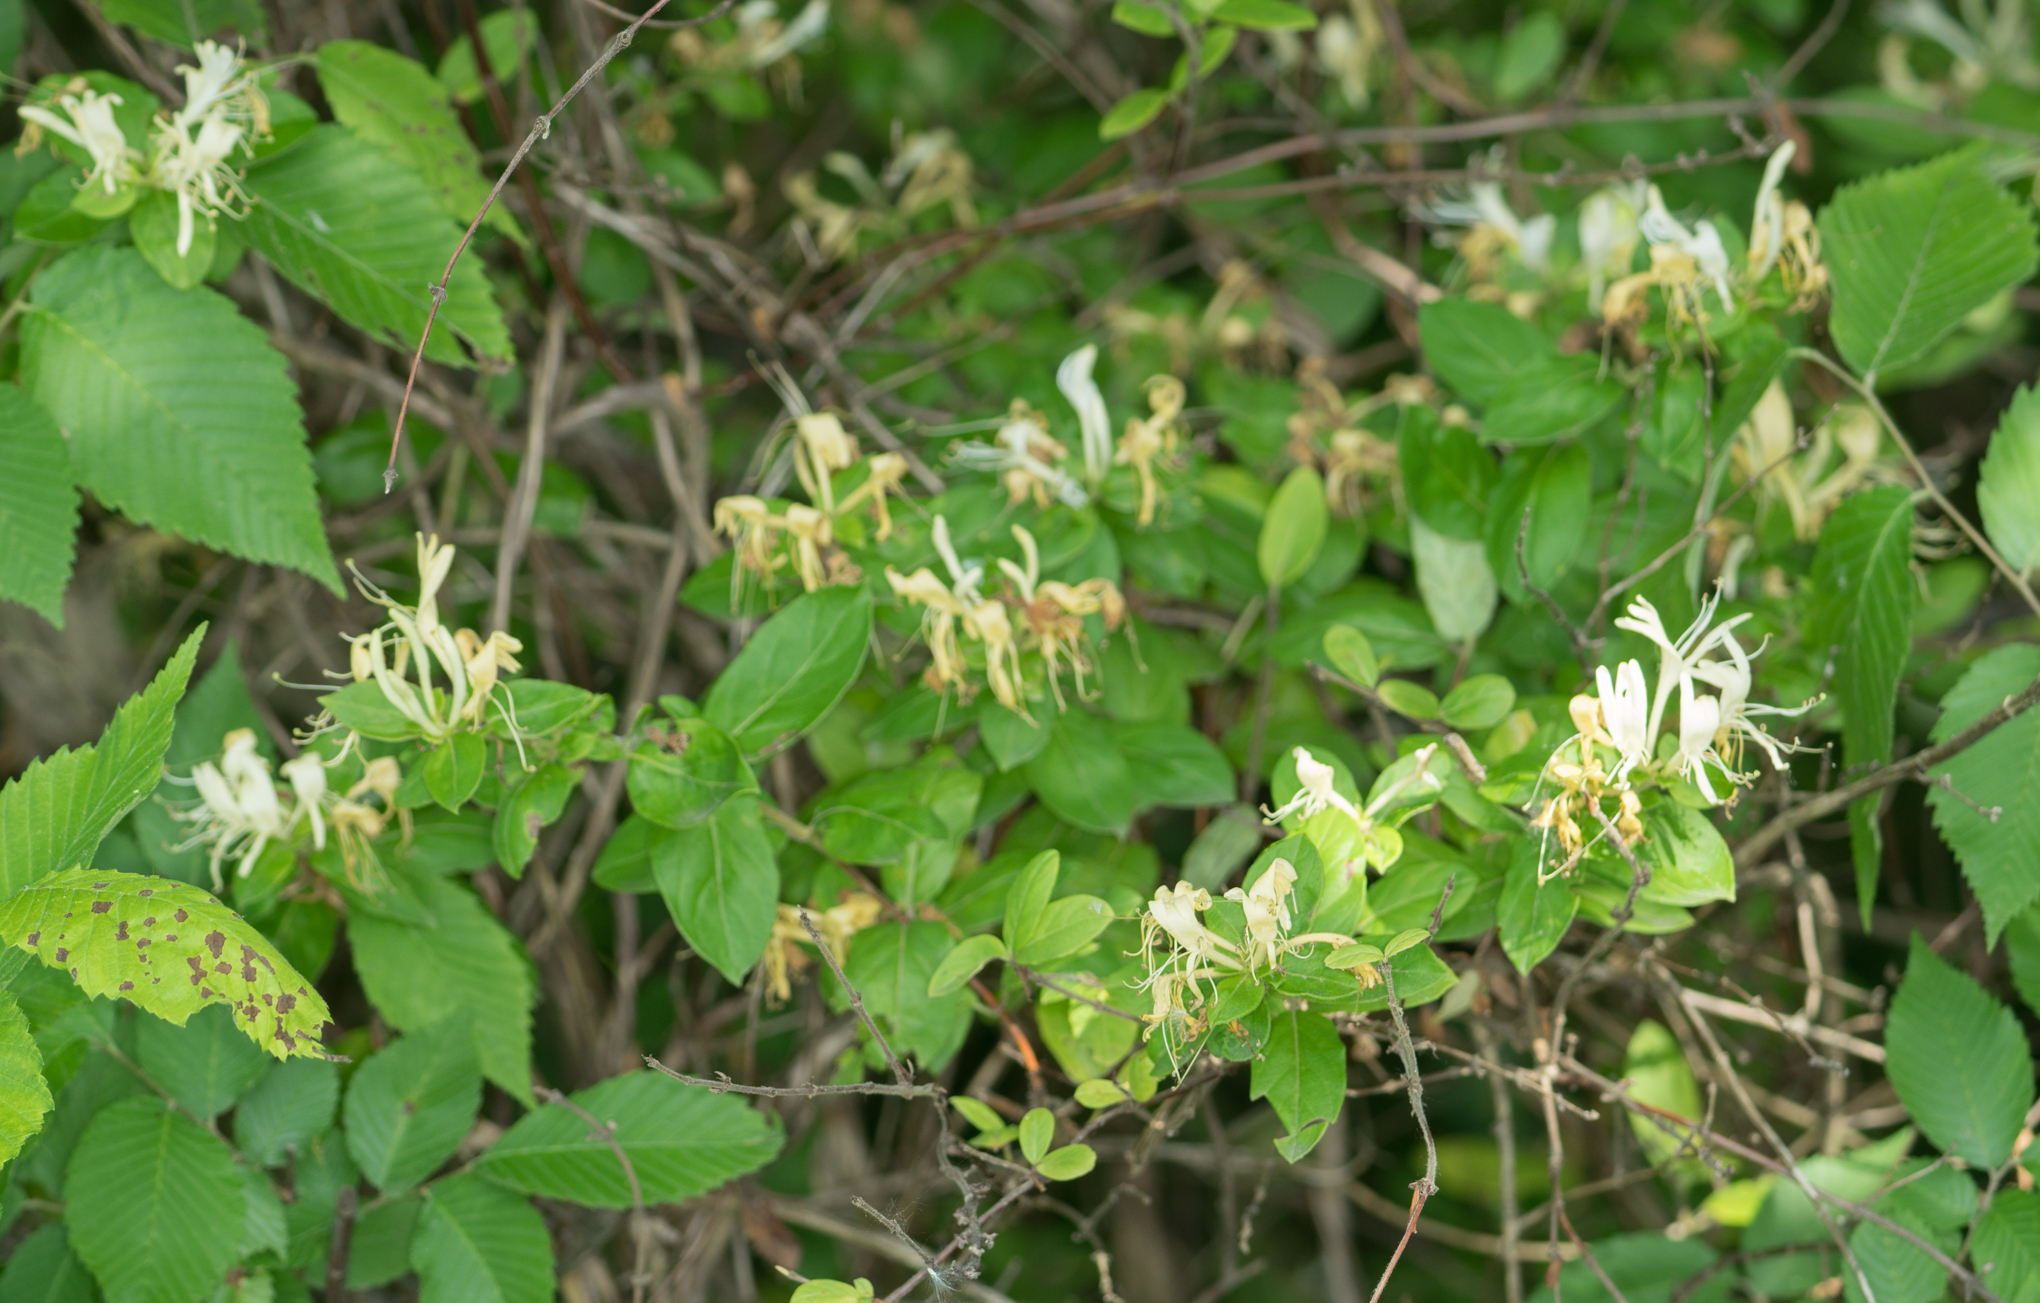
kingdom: Plantae
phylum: Tracheophyta
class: Magnoliopsida
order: Dipsacales
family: Caprifoliaceae
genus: Lonicera
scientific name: Lonicera japonica
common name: Japanese honeysuckle
